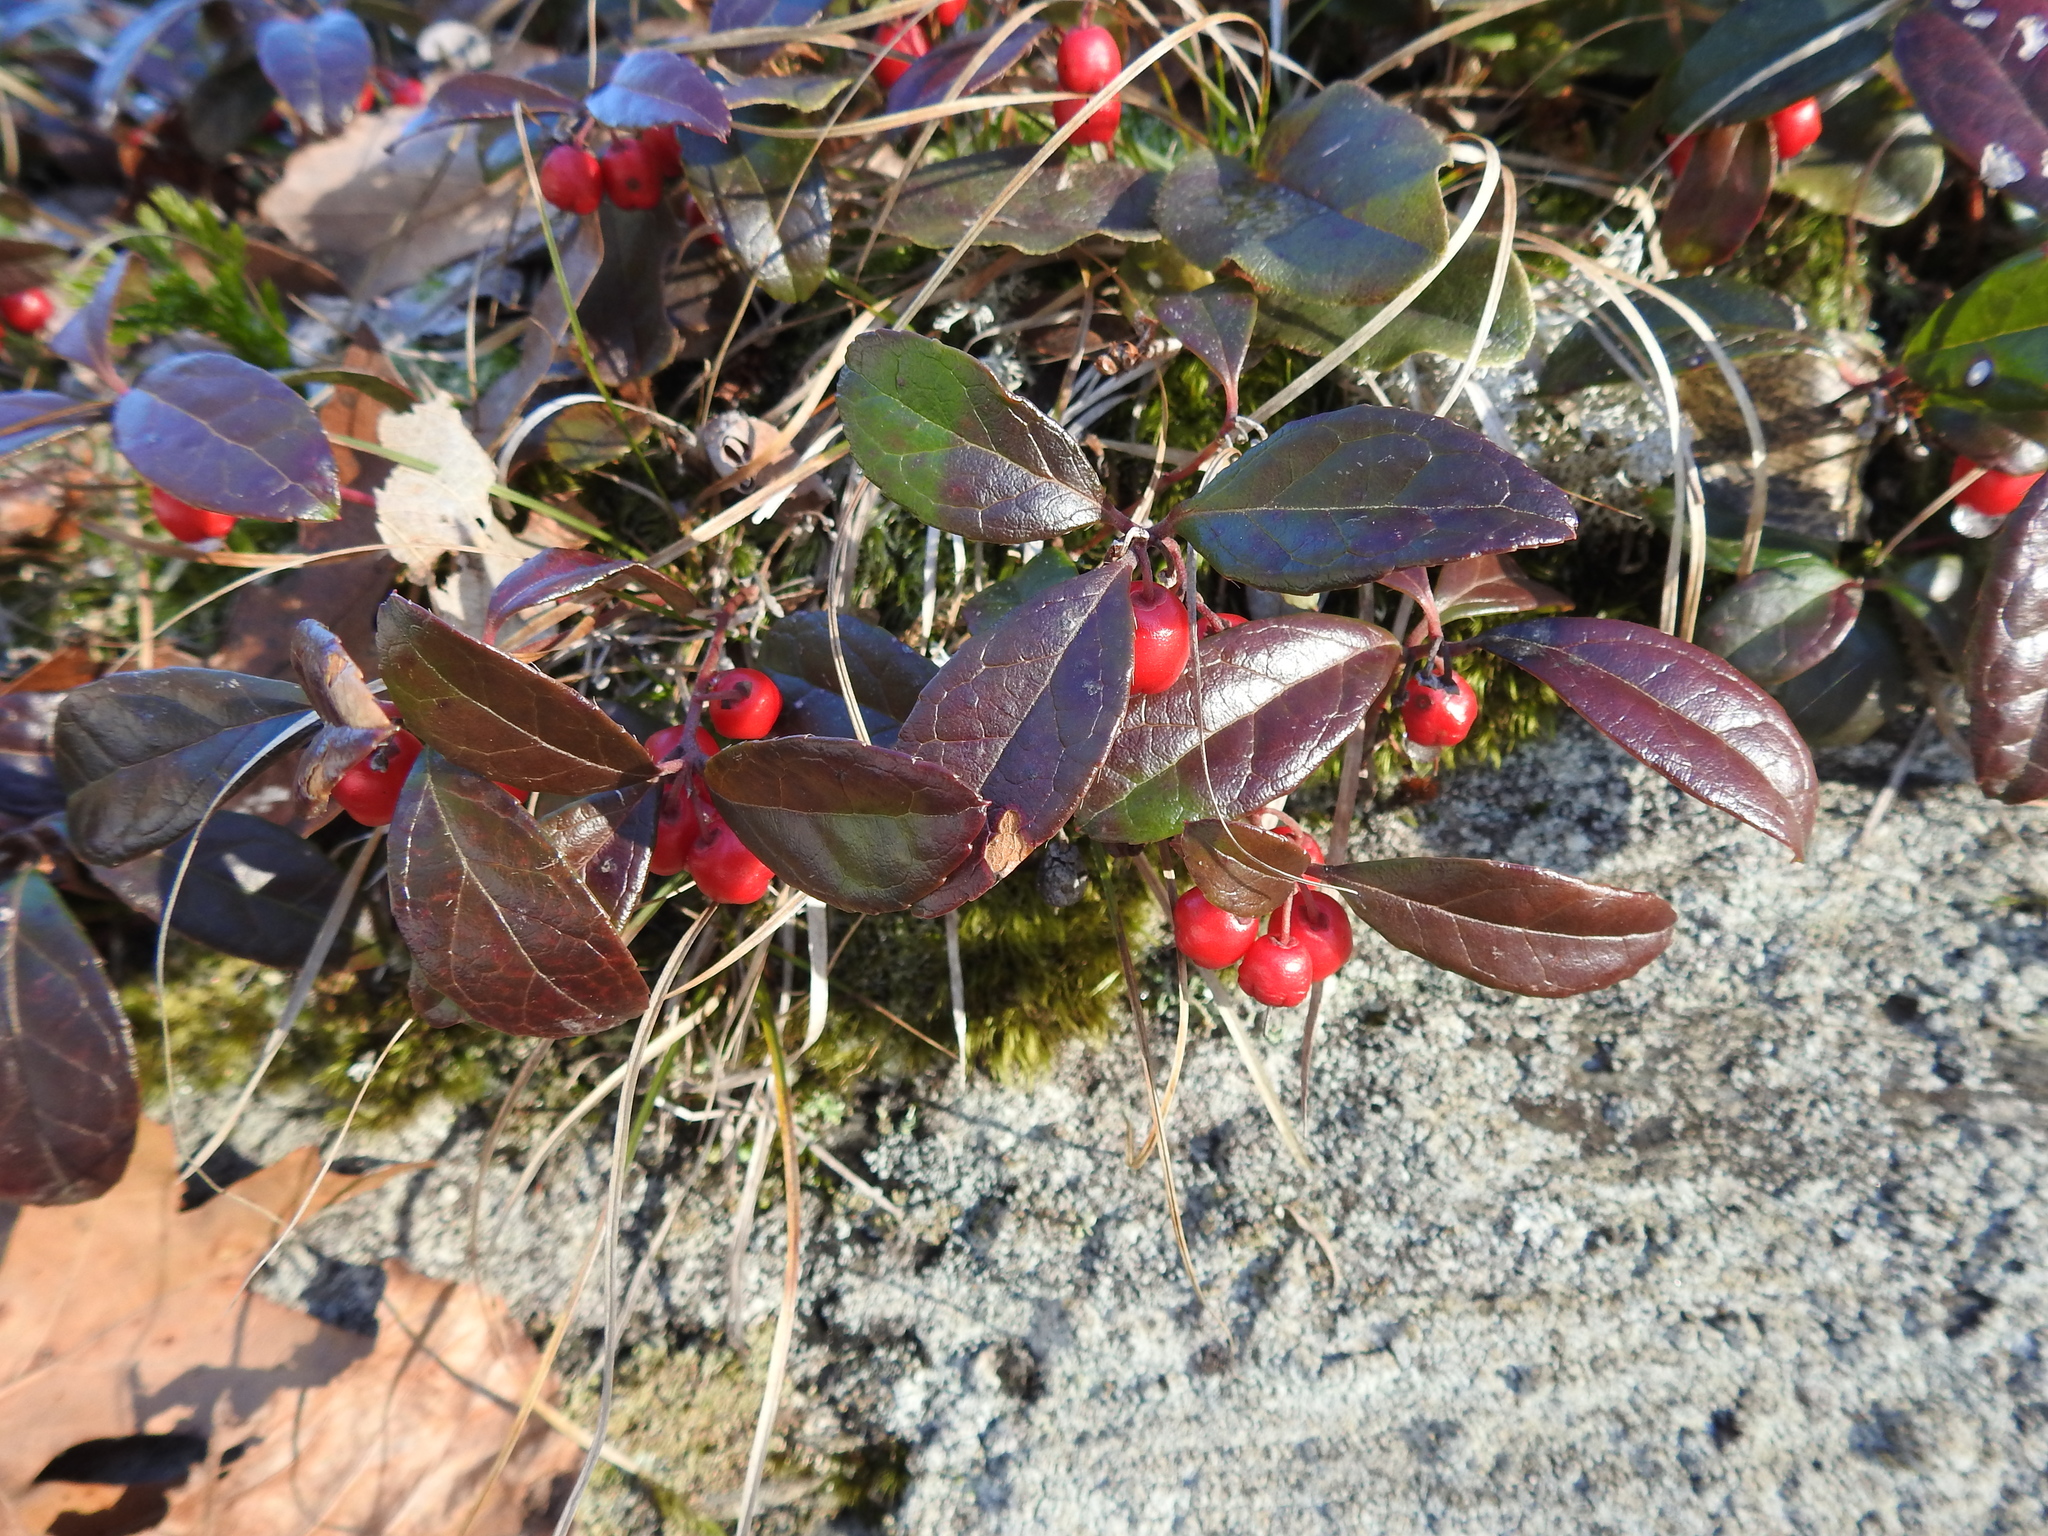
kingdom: Plantae
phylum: Tracheophyta
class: Magnoliopsida
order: Ericales
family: Ericaceae
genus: Gaultheria
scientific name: Gaultheria procumbens
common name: Checkerberry
